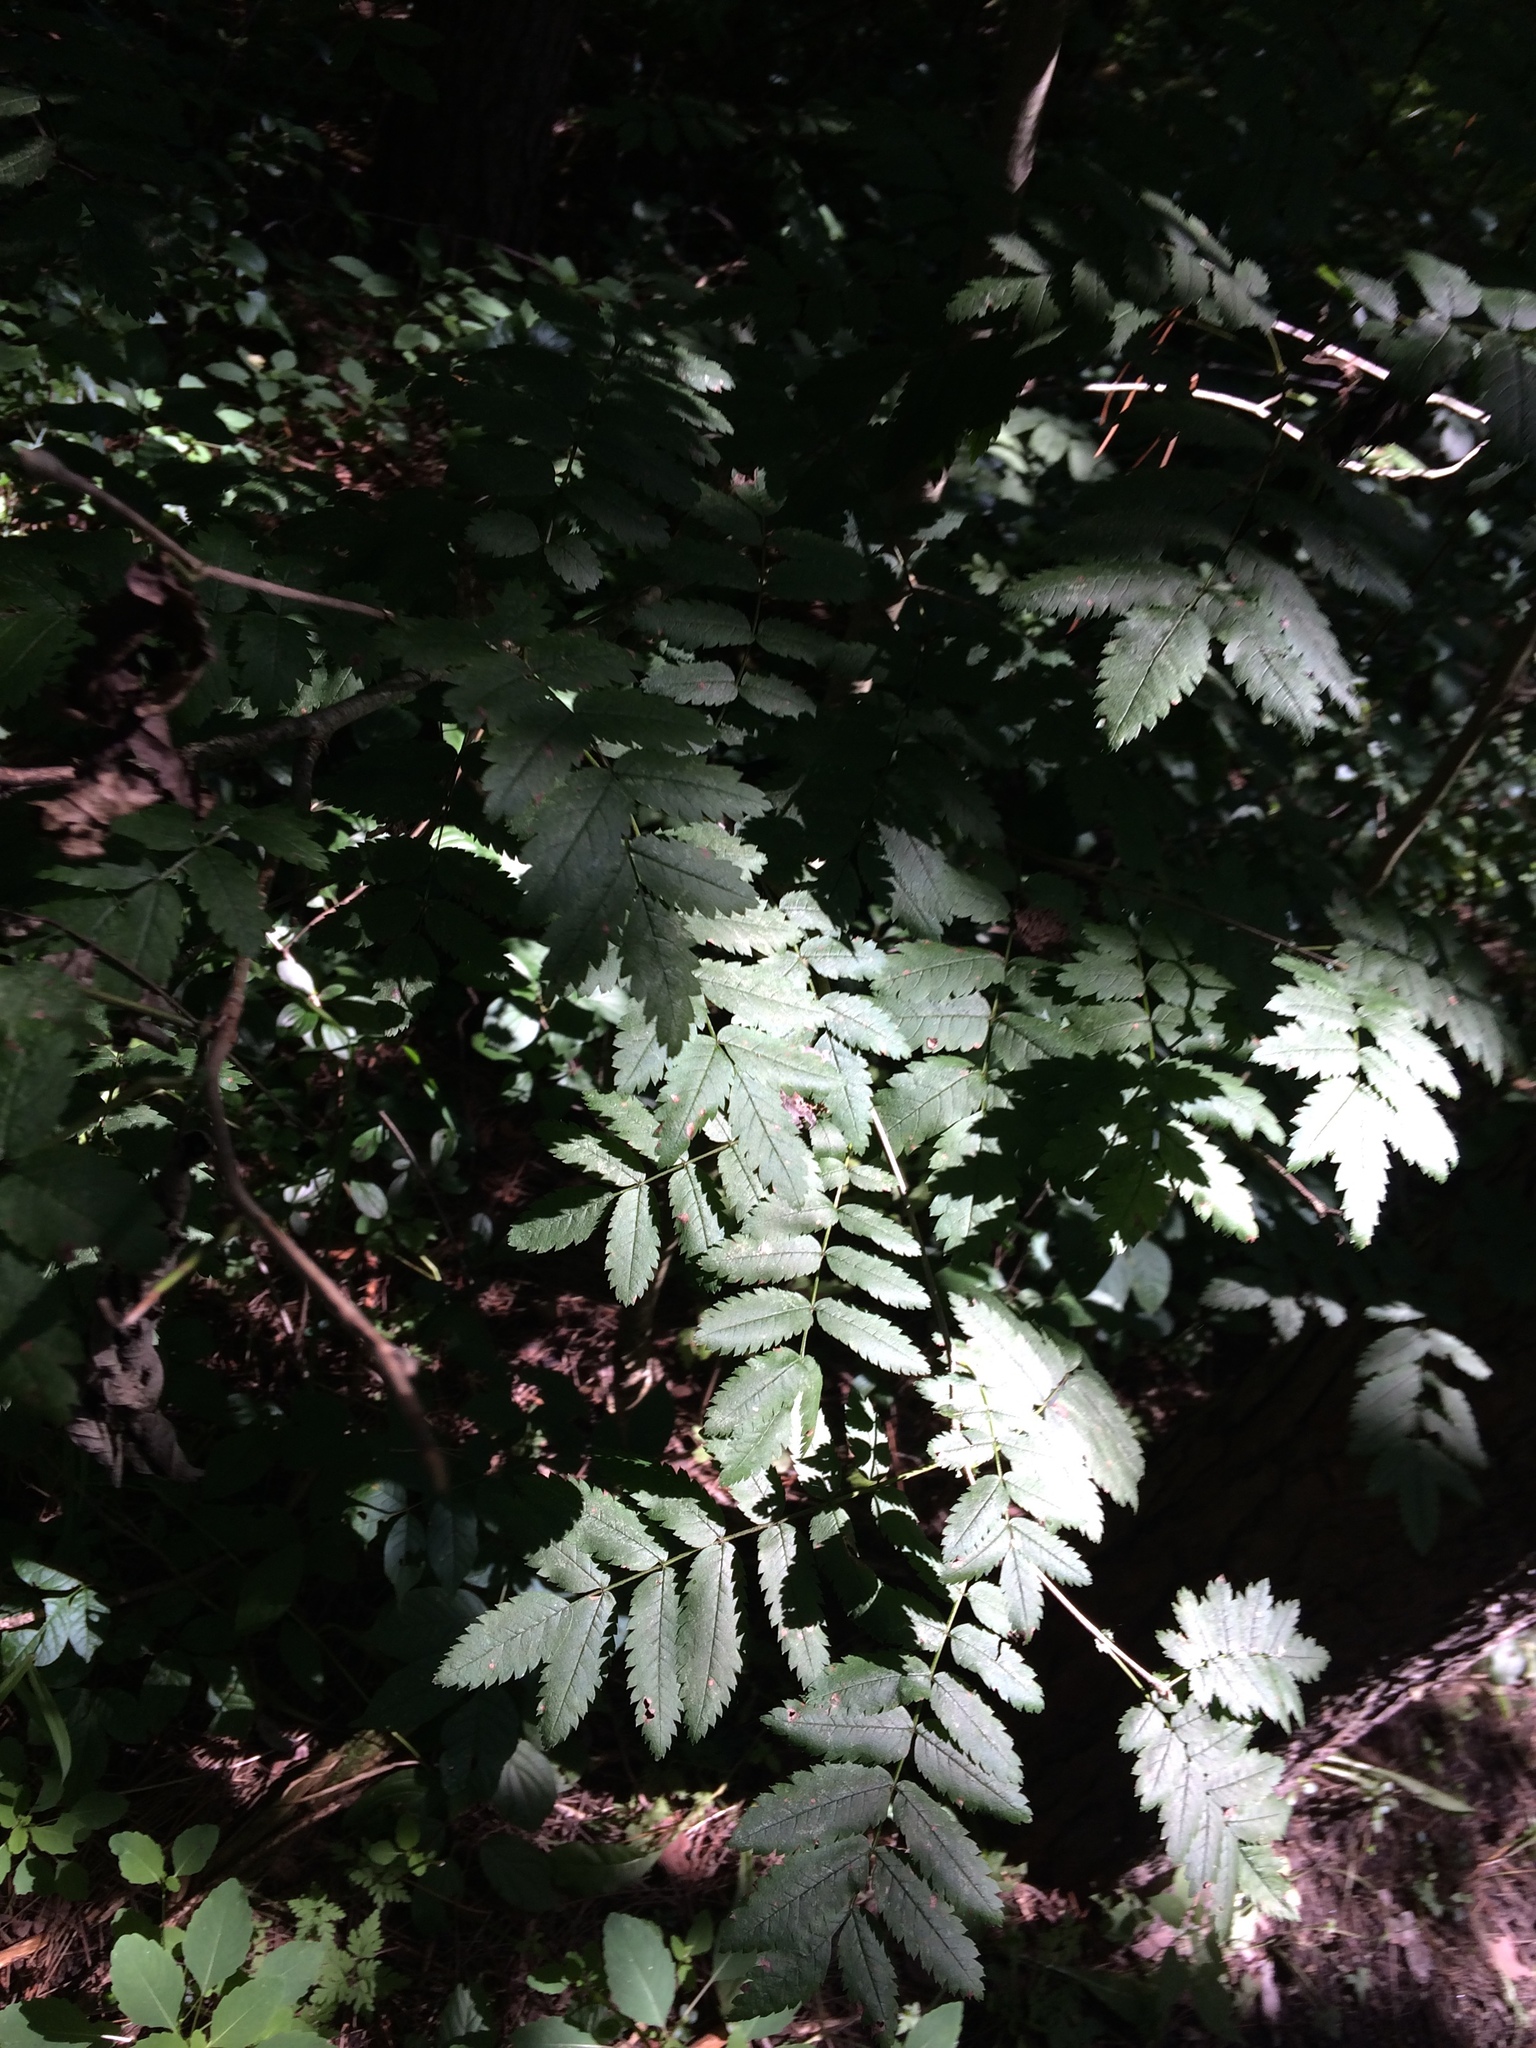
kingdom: Plantae
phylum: Tracheophyta
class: Magnoliopsida
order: Rosales
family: Rosaceae
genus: Sorbus
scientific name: Sorbus aucuparia
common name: Rowan
